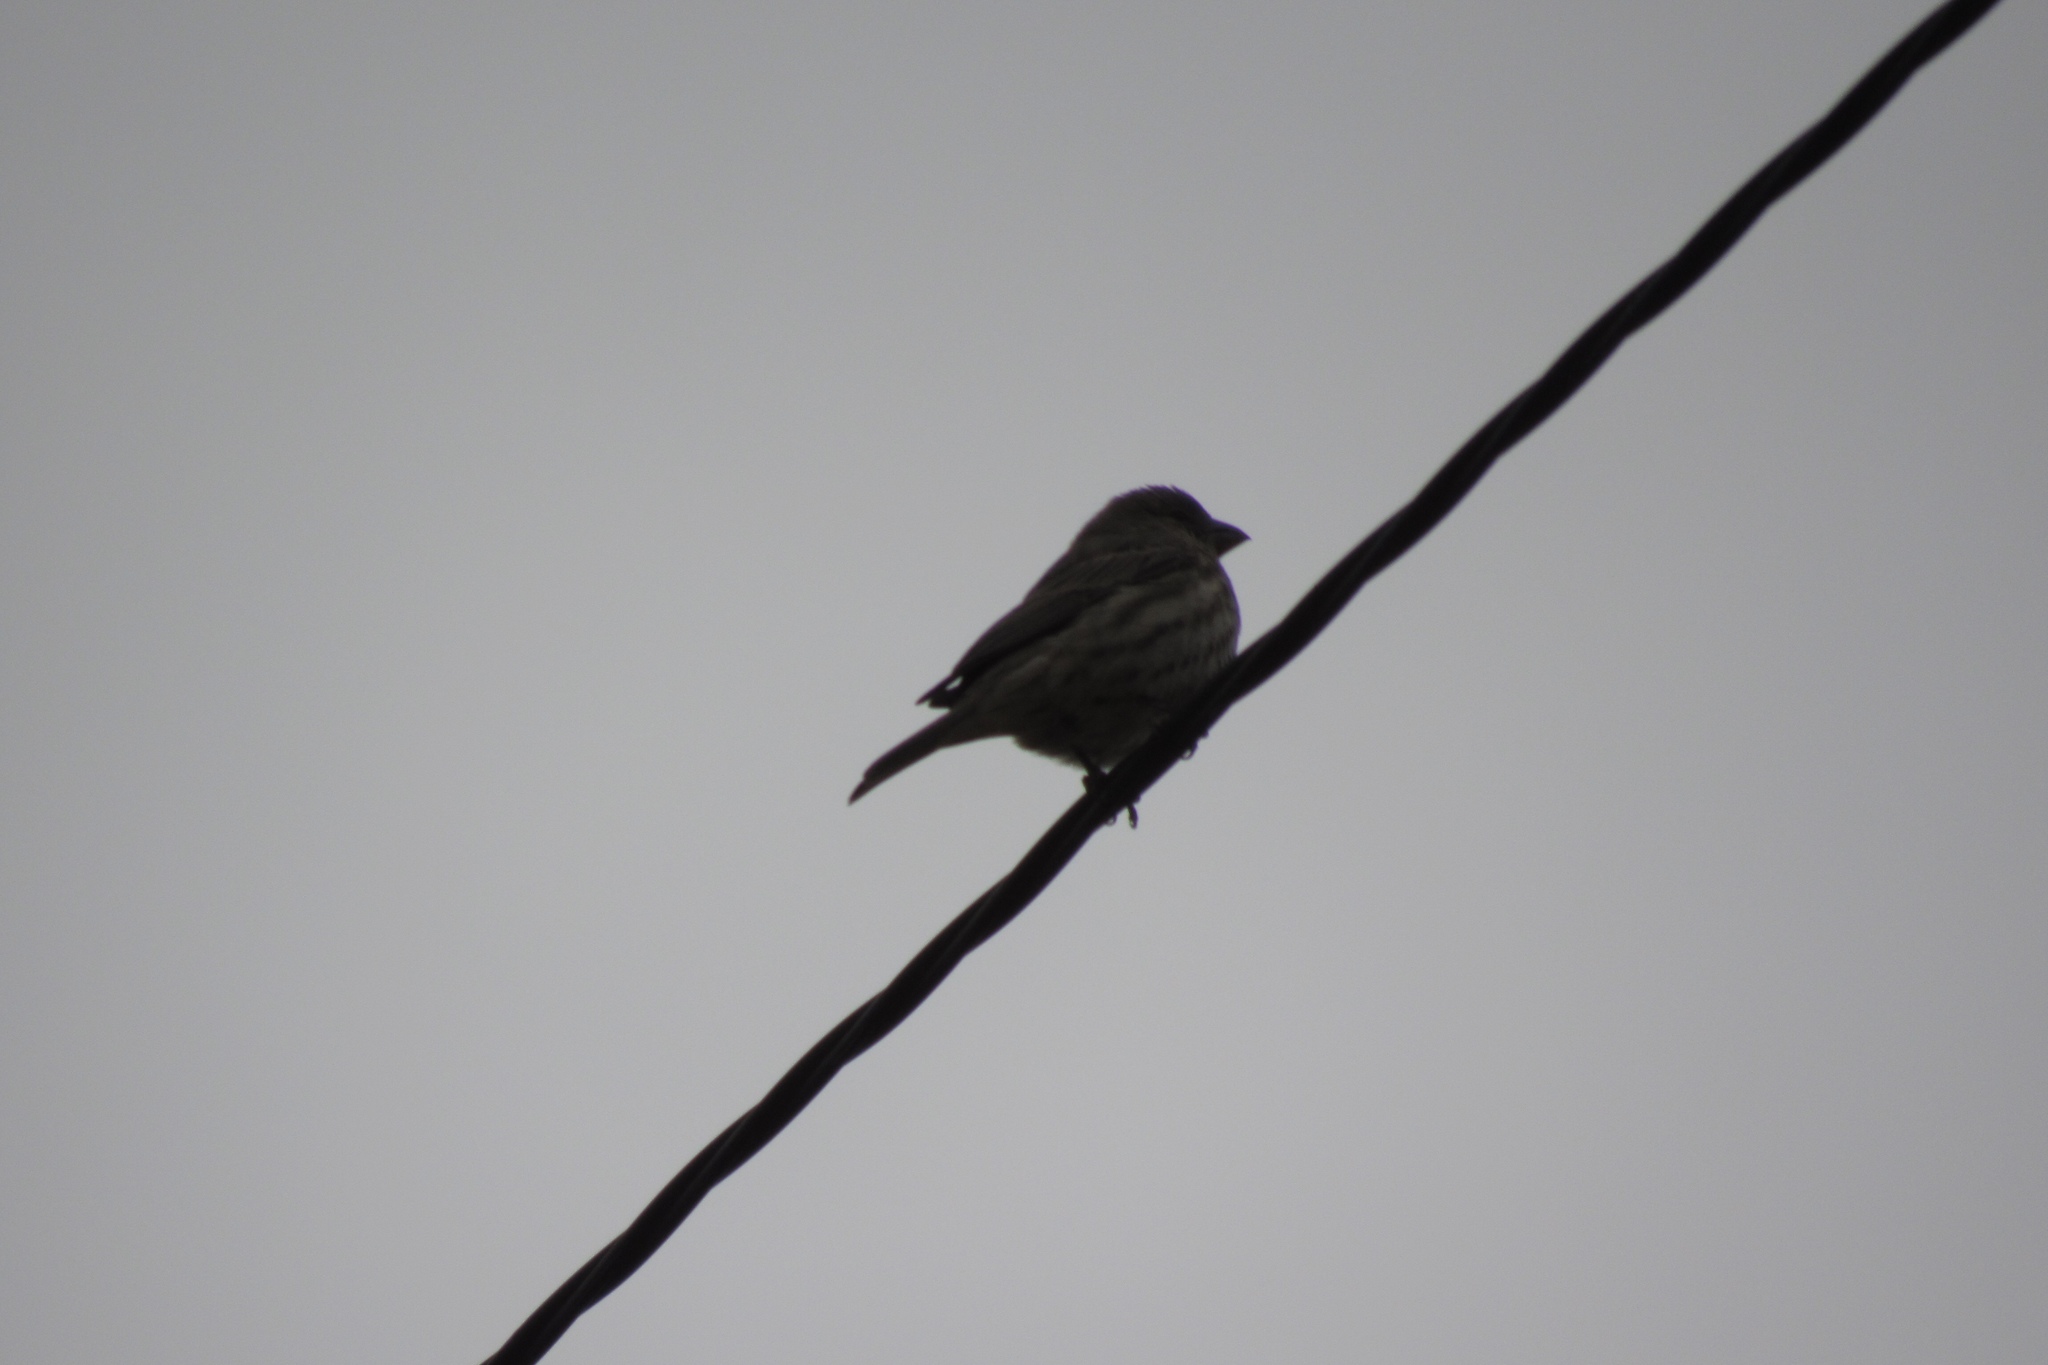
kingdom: Animalia
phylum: Chordata
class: Aves
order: Passeriformes
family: Fringillidae
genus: Haemorhous
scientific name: Haemorhous mexicanus
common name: House finch
